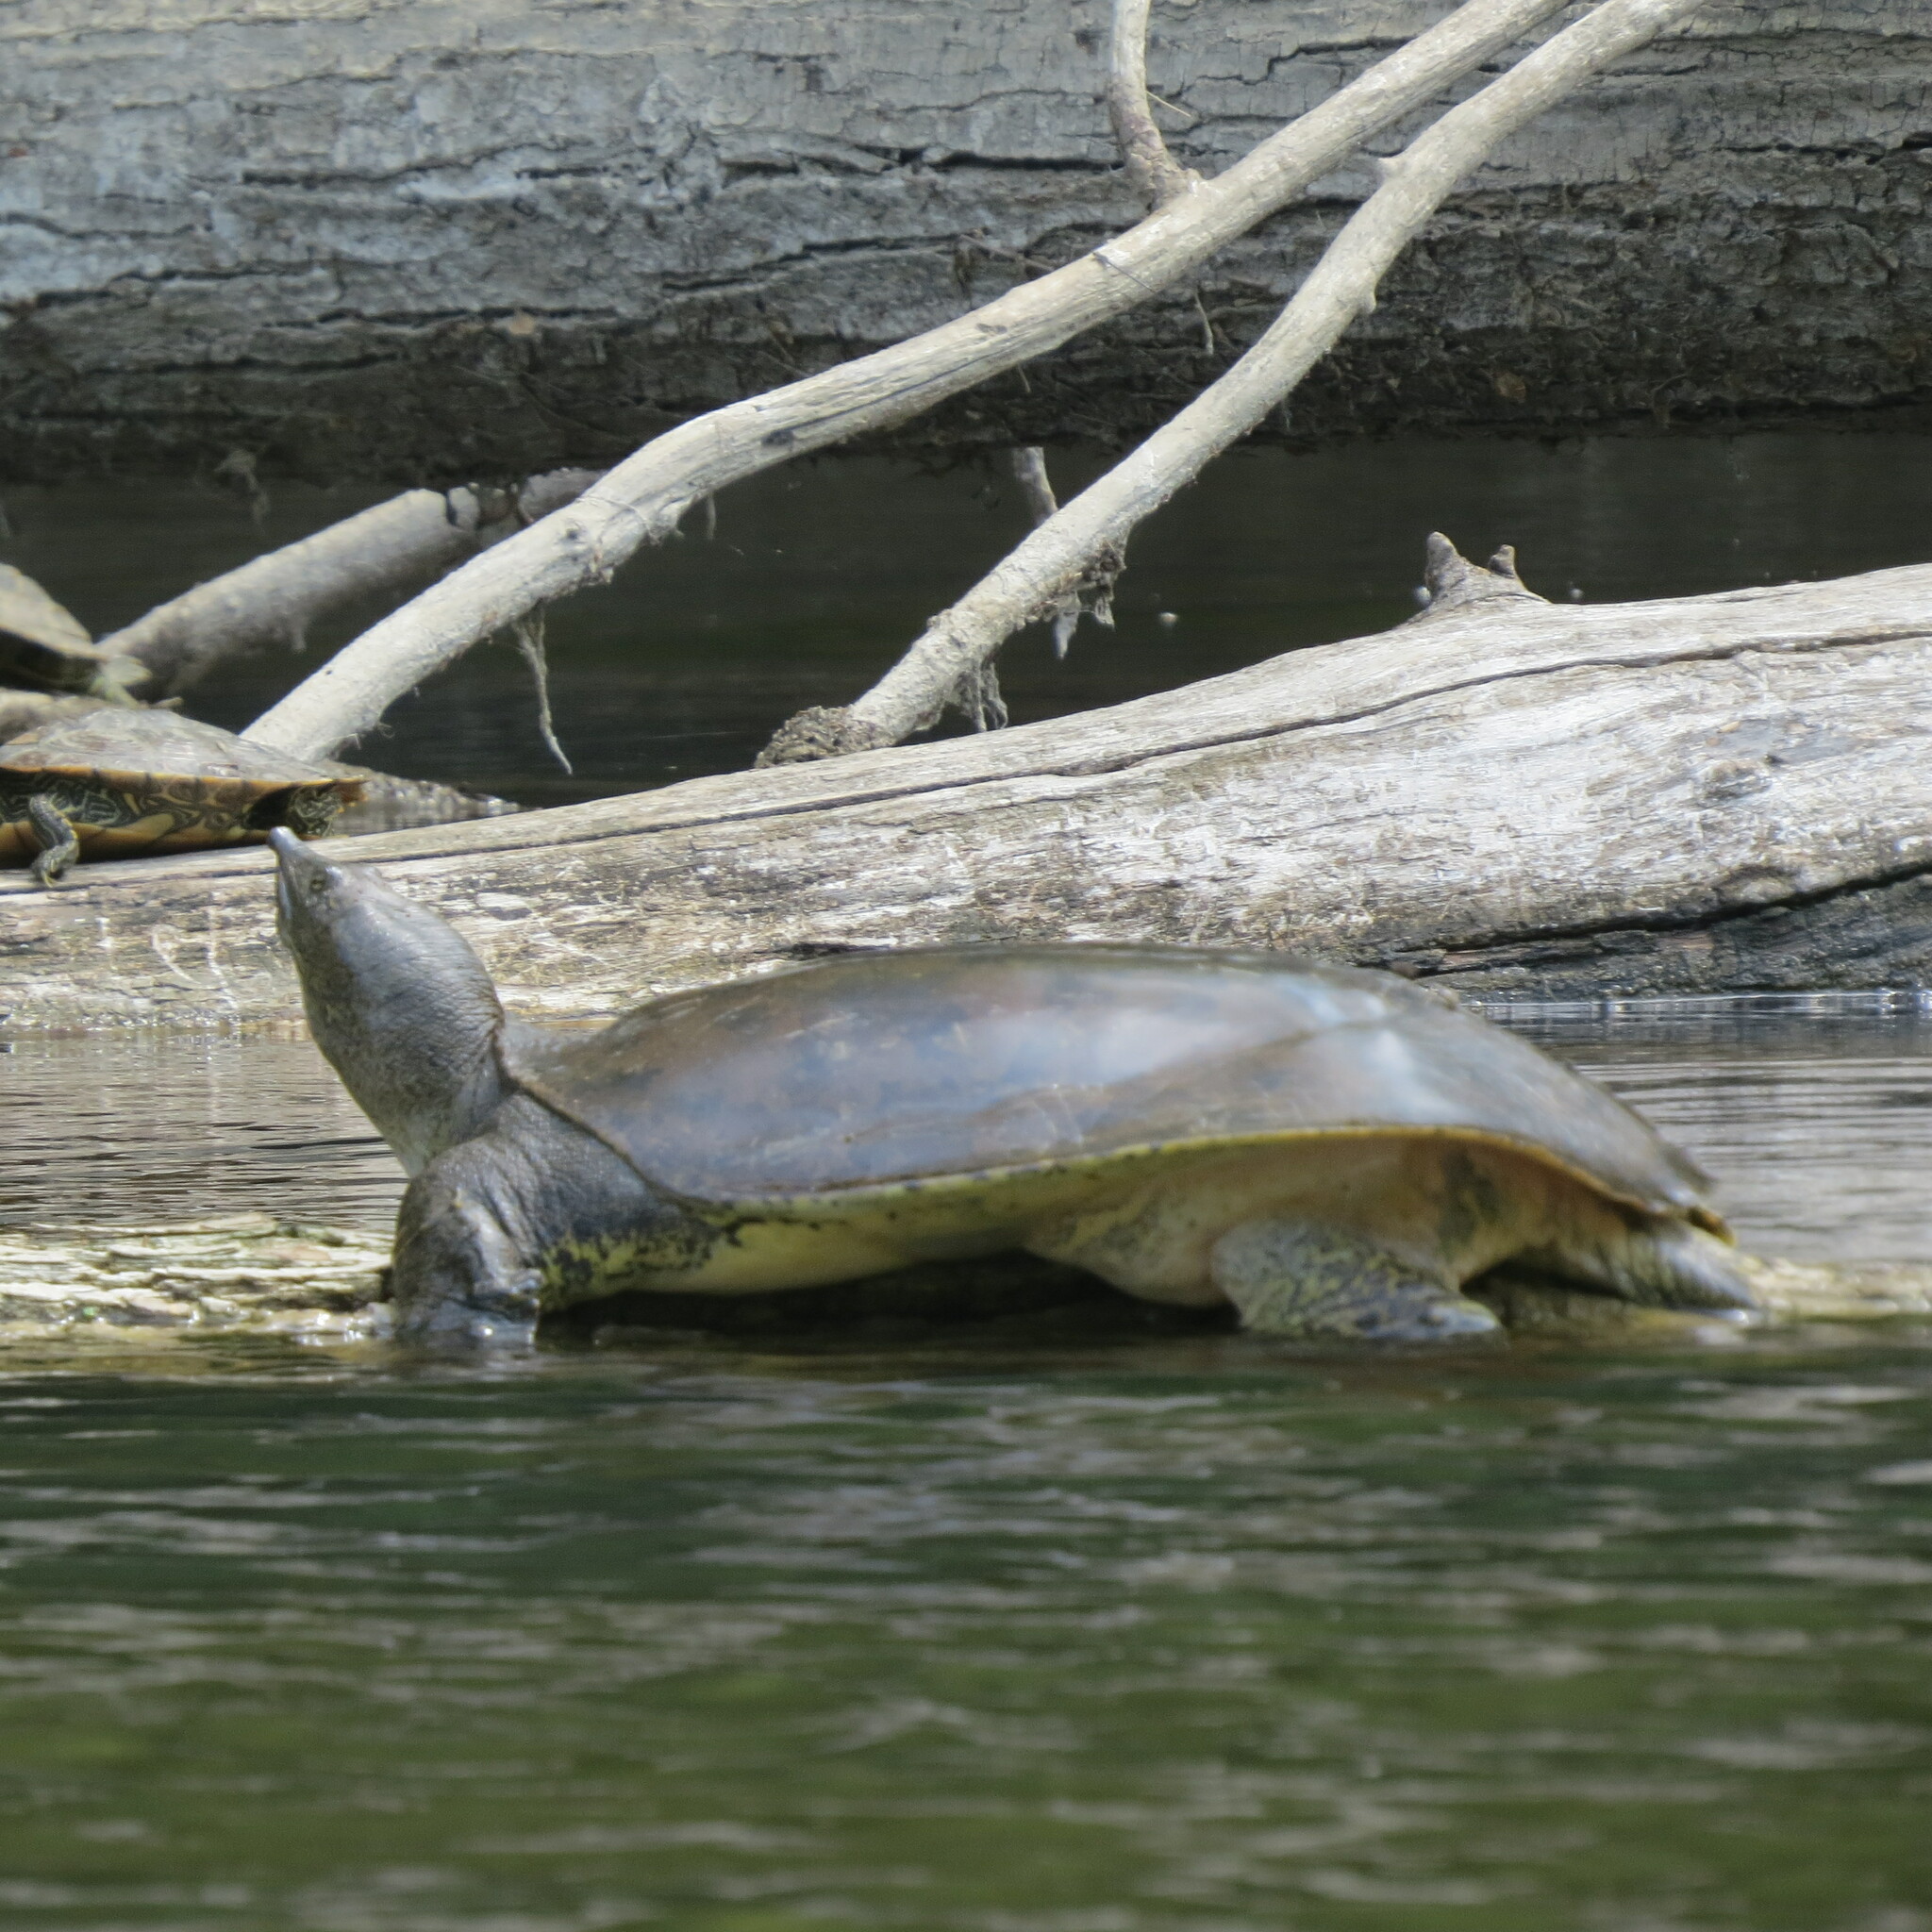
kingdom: Animalia
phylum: Chordata
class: Testudines
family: Trionychidae
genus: Apalone
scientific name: Apalone spinifera
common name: Spiny softshell turtle
